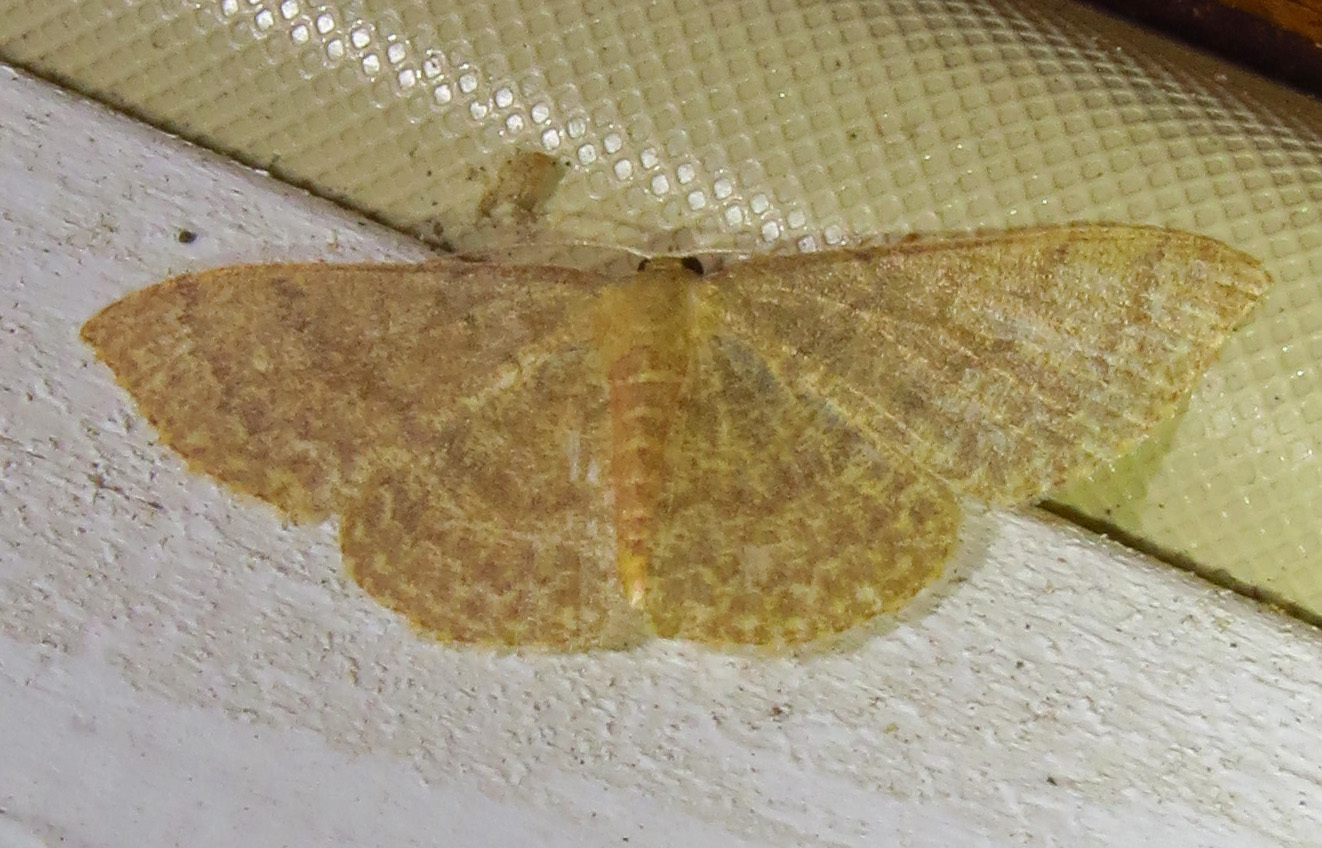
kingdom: Animalia
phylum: Arthropoda
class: Insecta
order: Lepidoptera
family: Geometridae
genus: Pleuroprucha
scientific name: Pleuroprucha insulsaria
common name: Common tan wave
